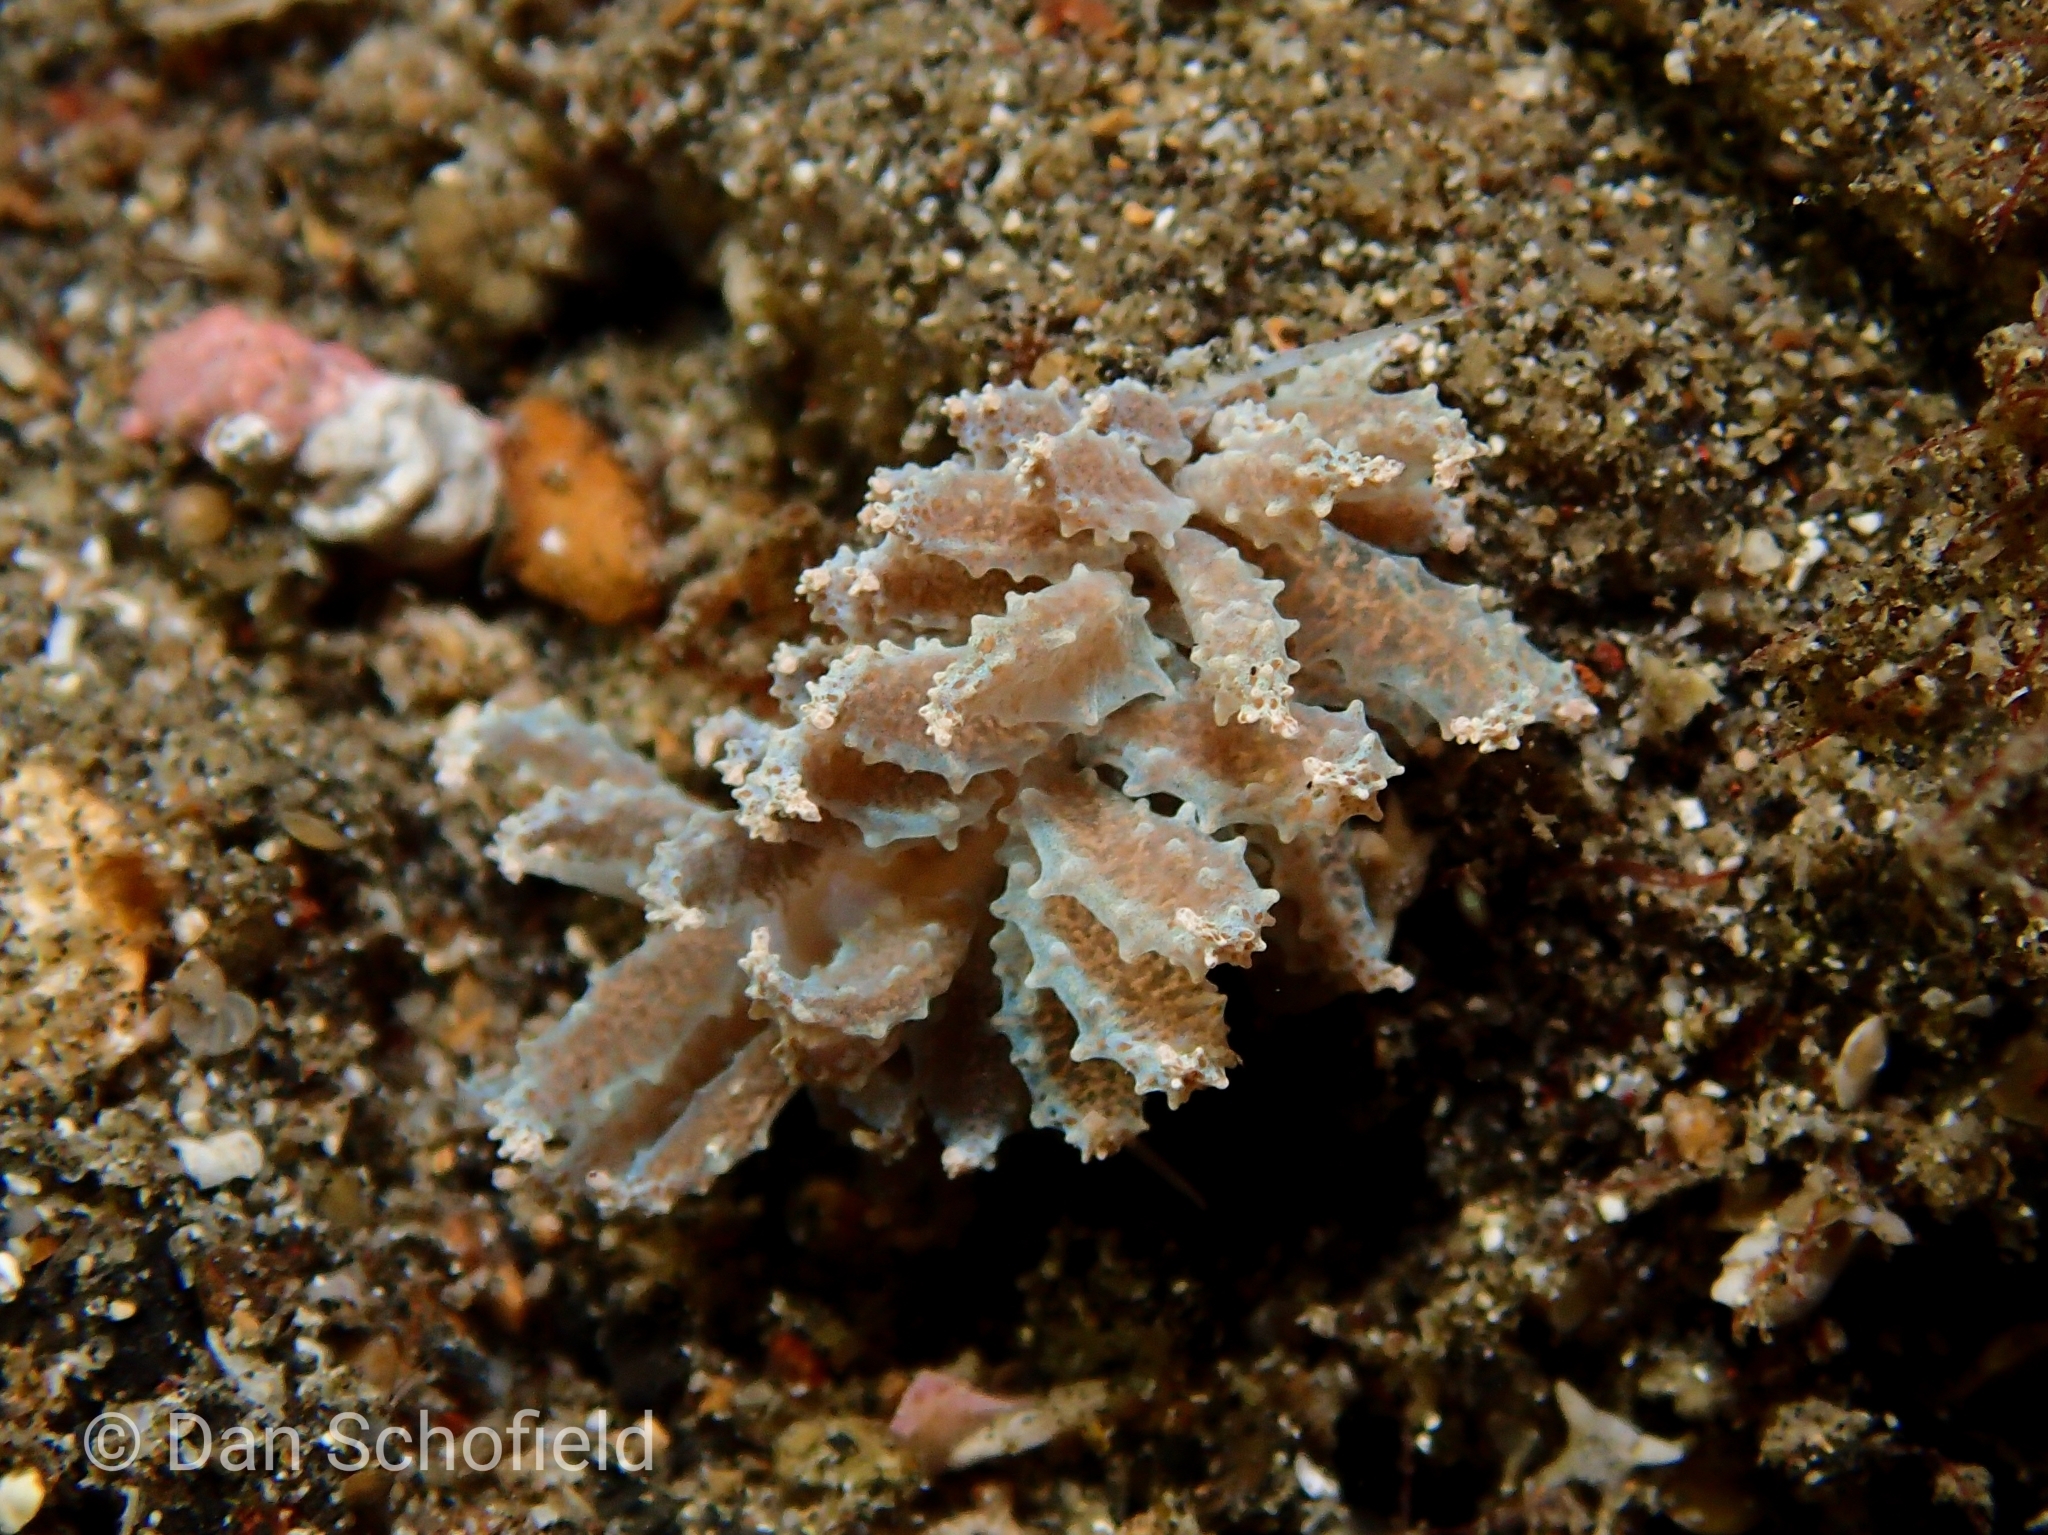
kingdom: Animalia
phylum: Mollusca
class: Gastropoda
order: Nudibranchia
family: Myrrhinidae
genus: Phyllodesmium
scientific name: Phyllodesmium crypticum
